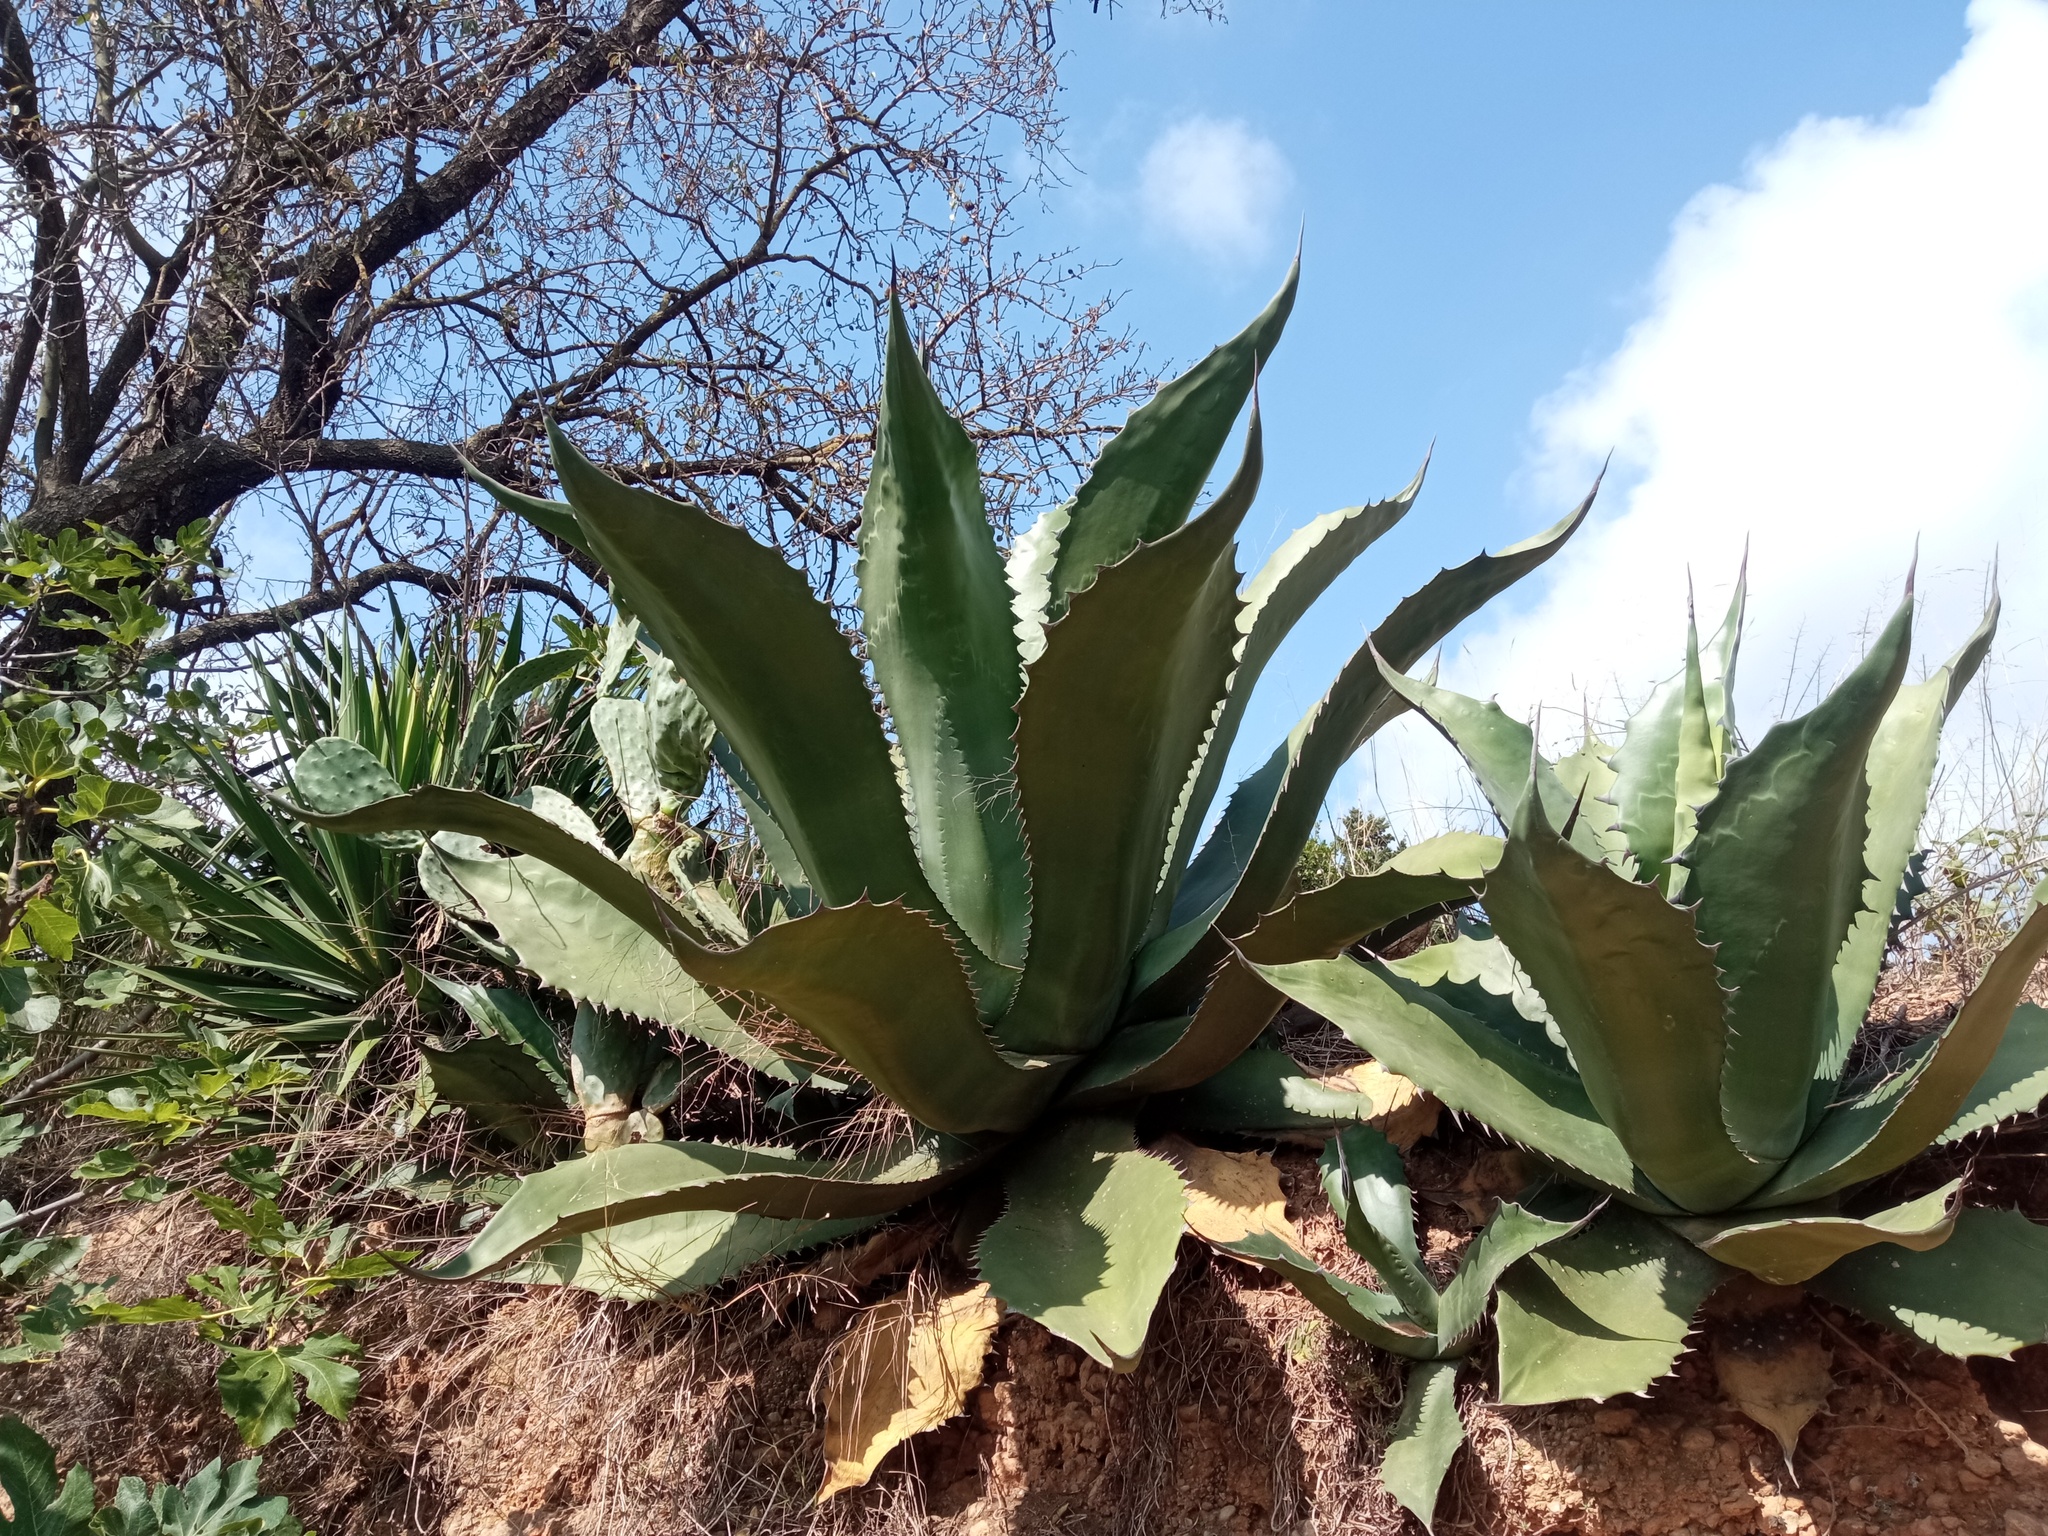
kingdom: Plantae
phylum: Tracheophyta
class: Liliopsida
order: Asparagales
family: Asparagaceae
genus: Agave
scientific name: Agave salmiana
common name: Pulque agave
